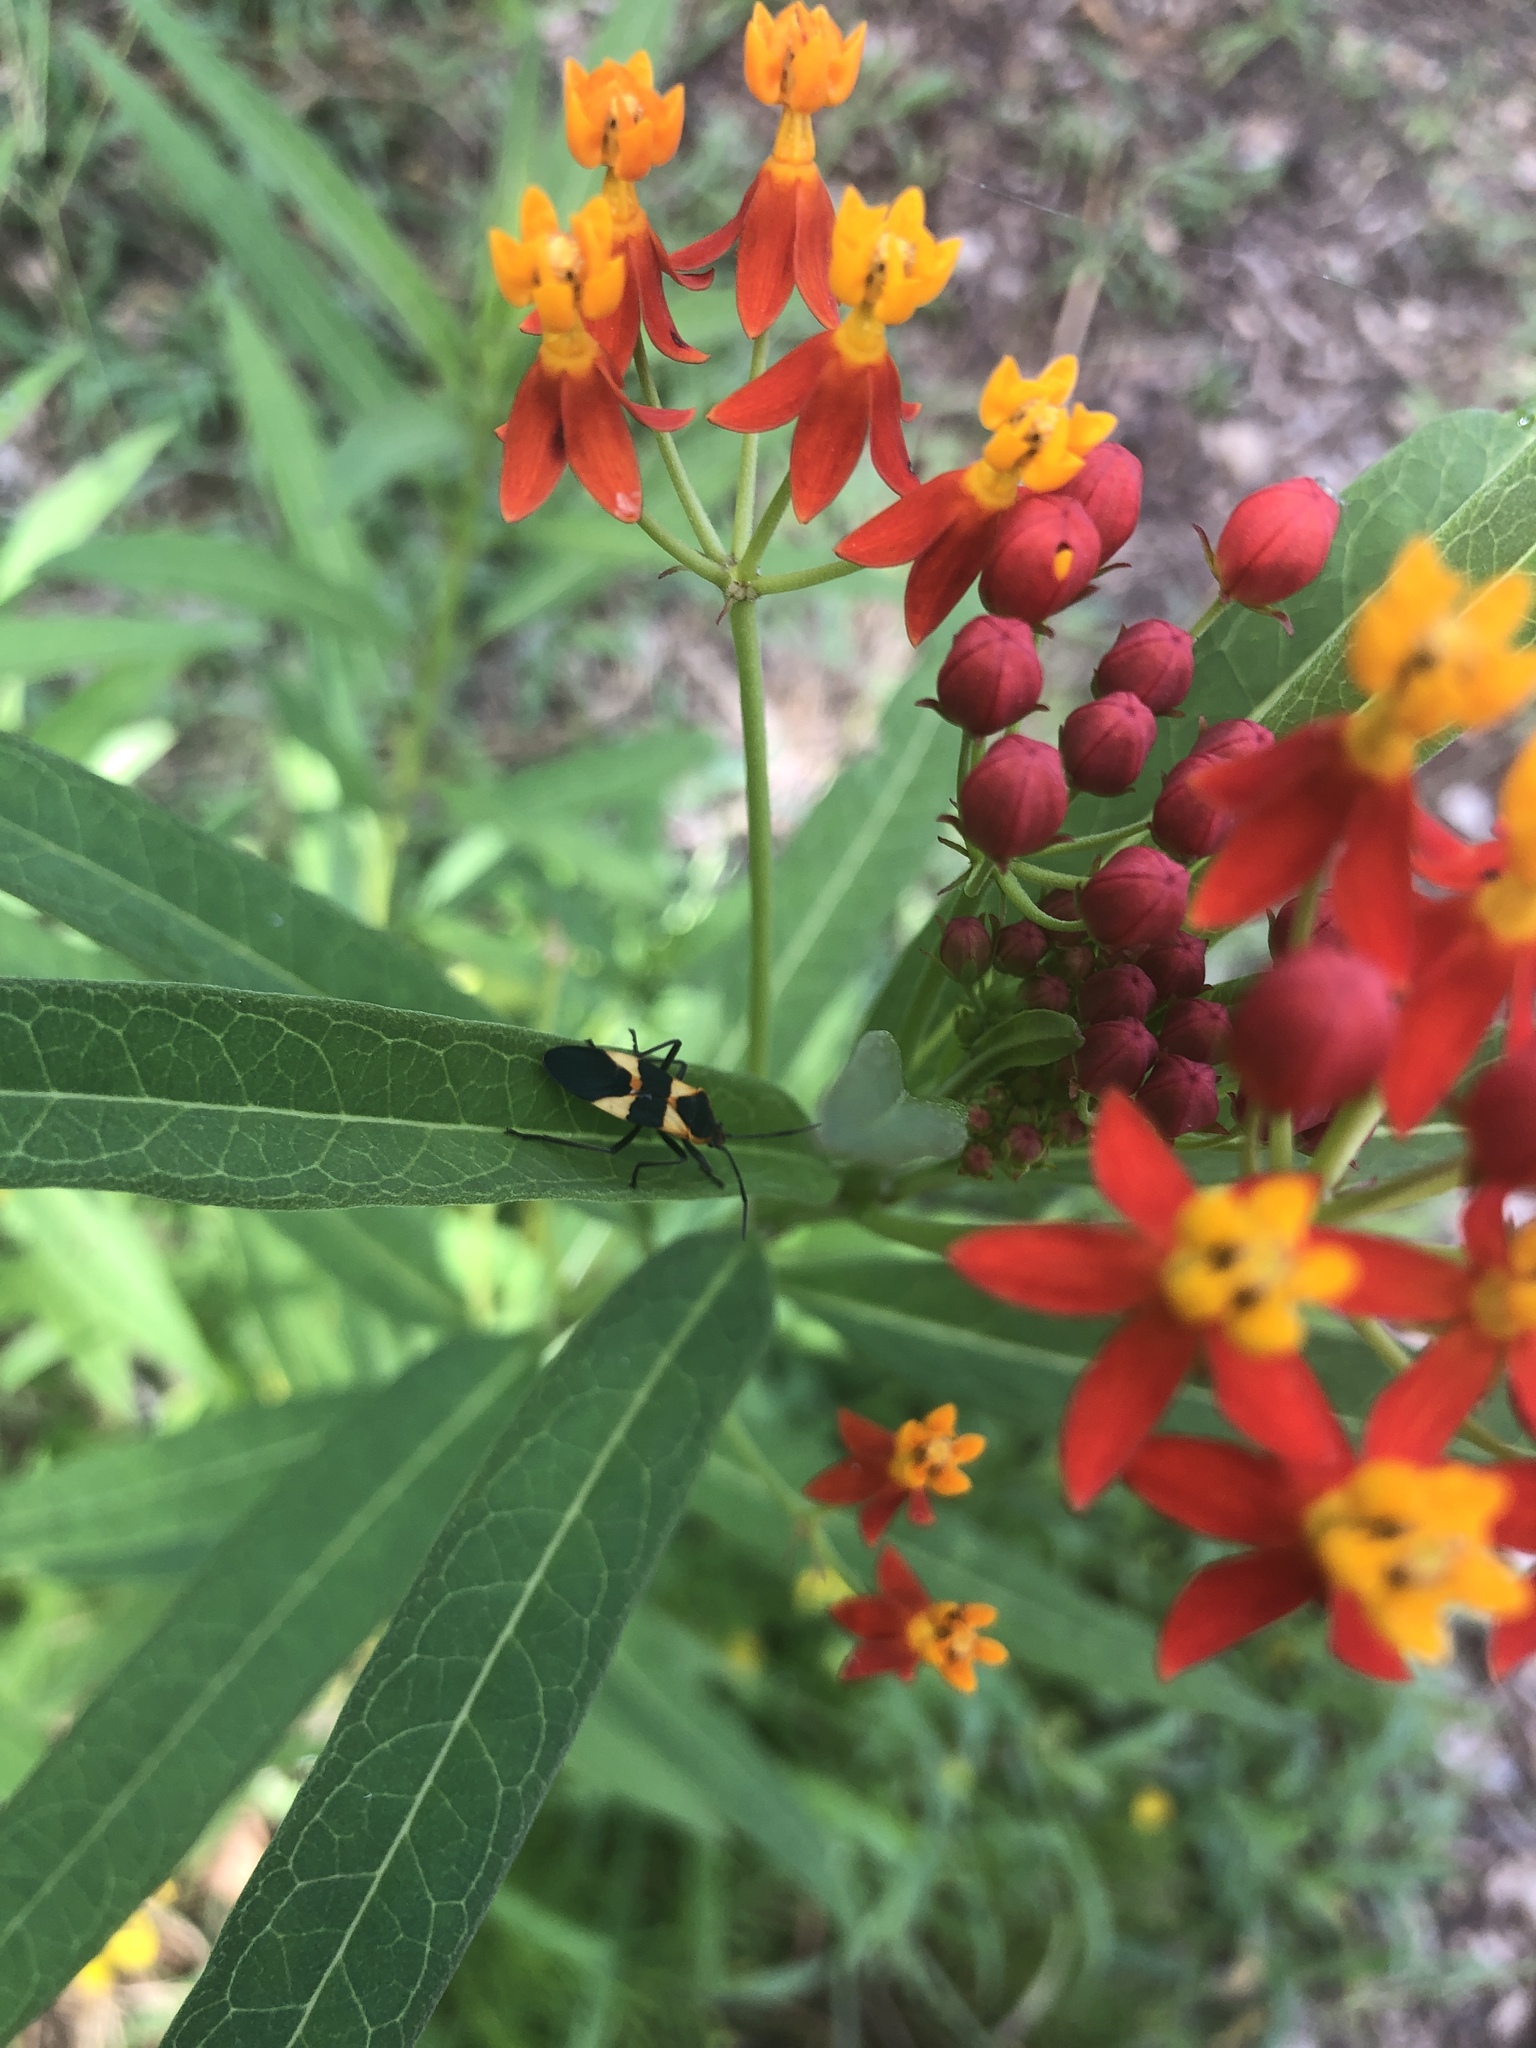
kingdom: Animalia
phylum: Arthropoda
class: Insecta
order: Hemiptera
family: Lygaeidae
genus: Oncopeltus
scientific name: Oncopeltus fasciatus
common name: Large milkweed bug
